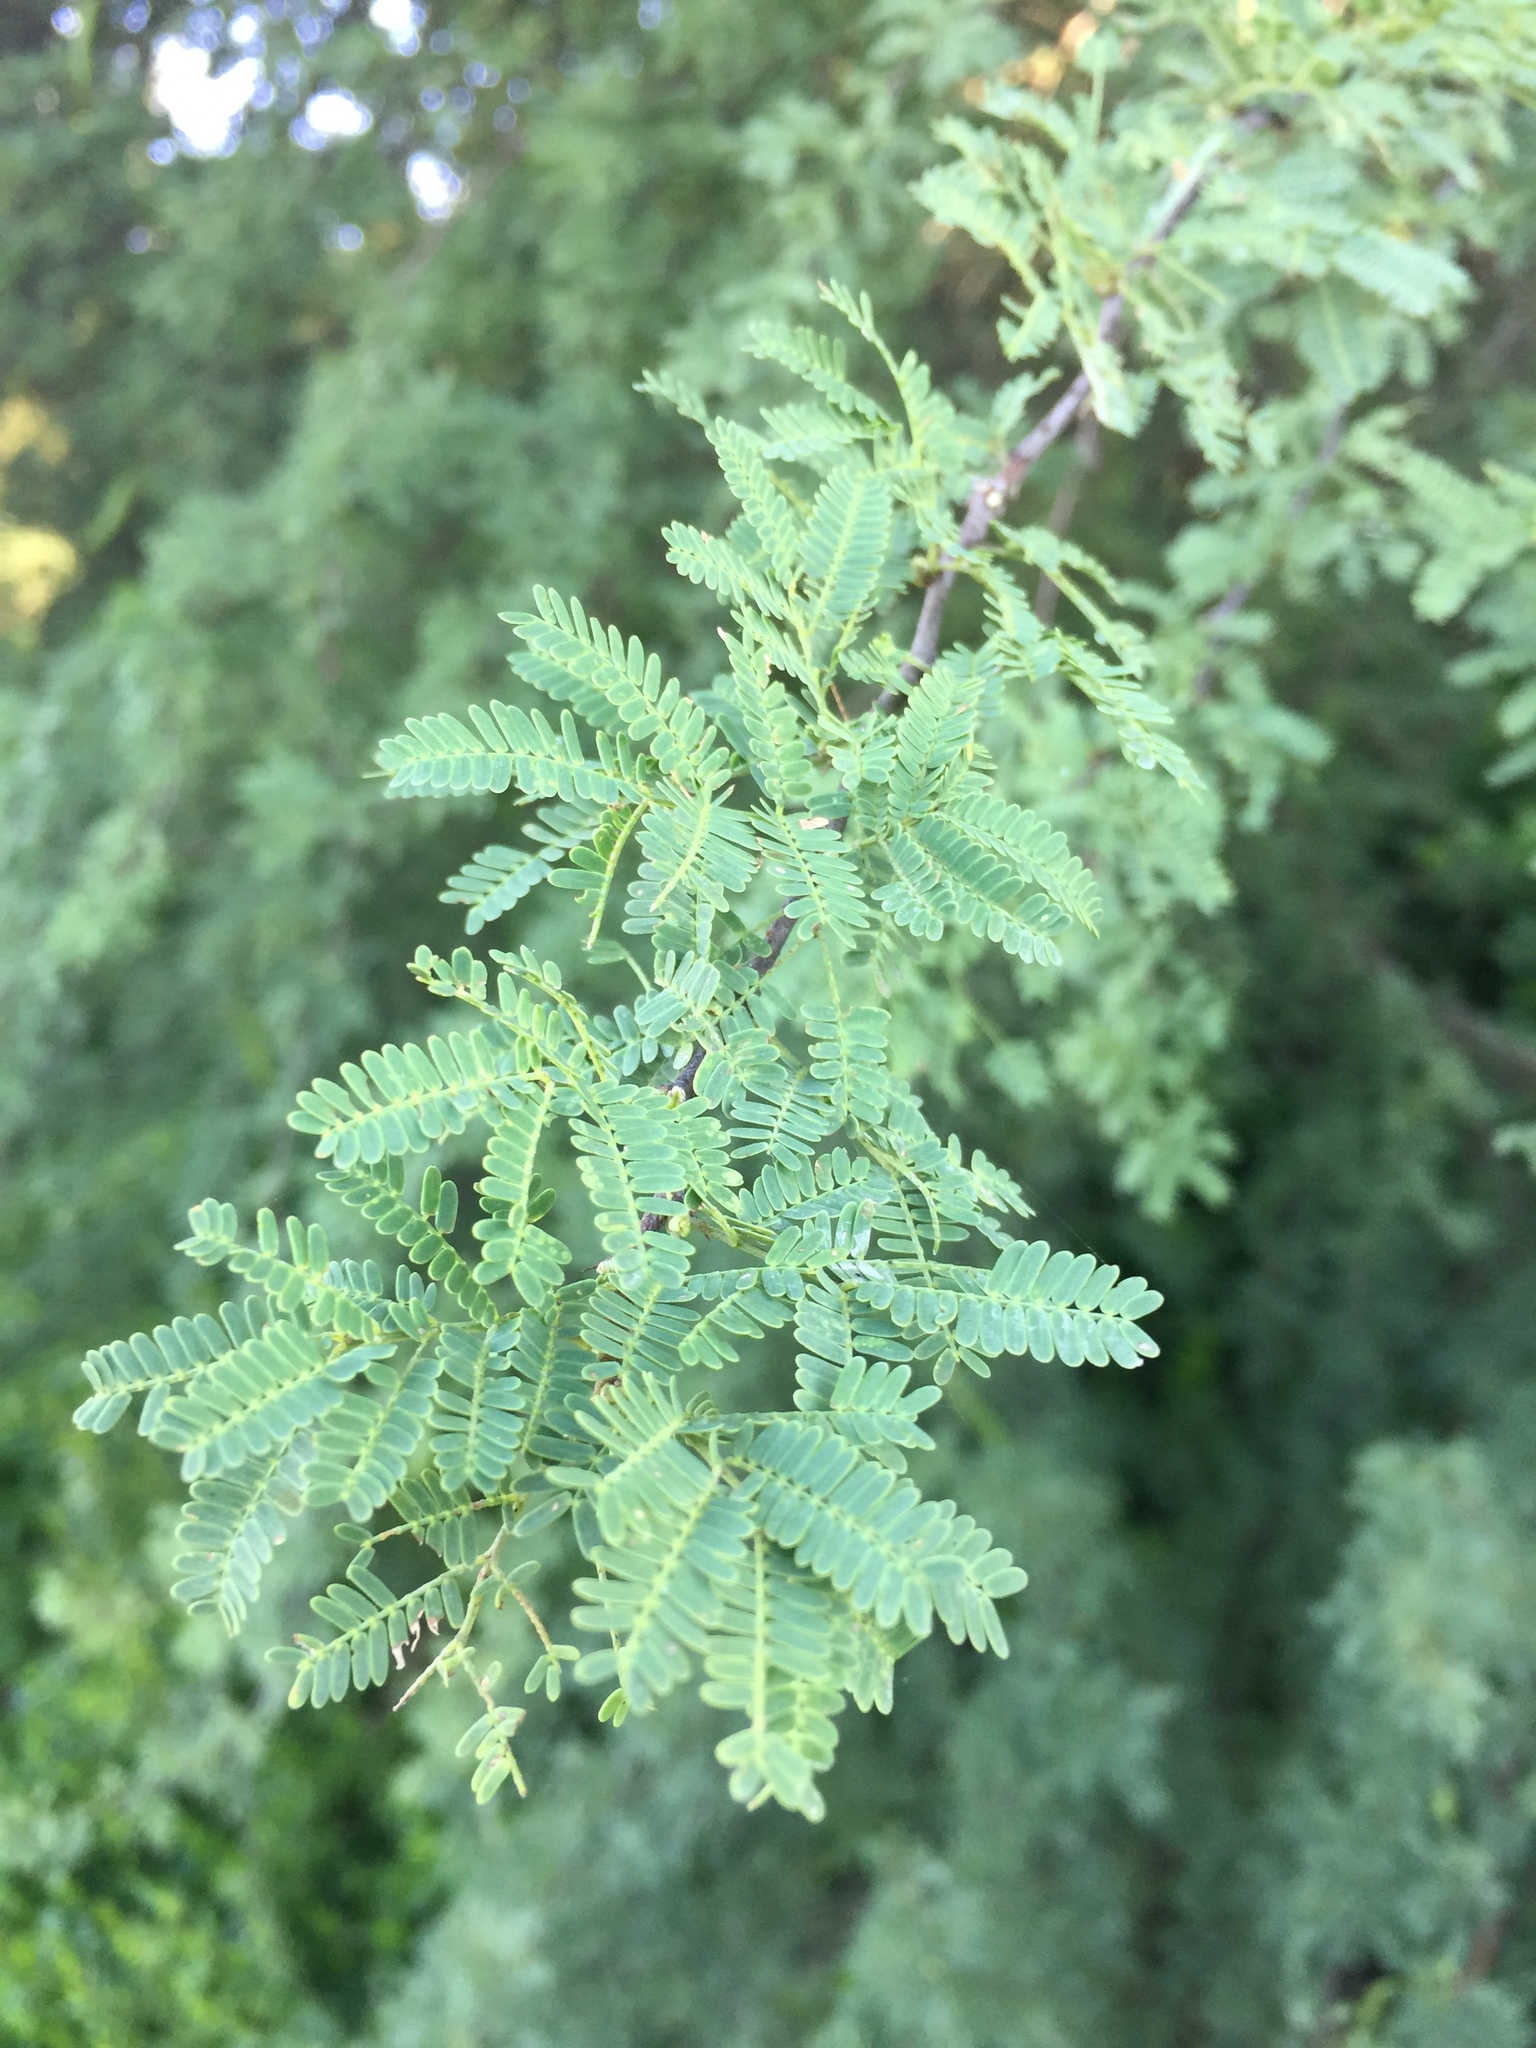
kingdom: Plantae
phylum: Tracheophyta
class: Magnoliopsida
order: Fabales
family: Fabaceae
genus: Vachellia
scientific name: Vachellia farnesiana
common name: Sweet acacia
